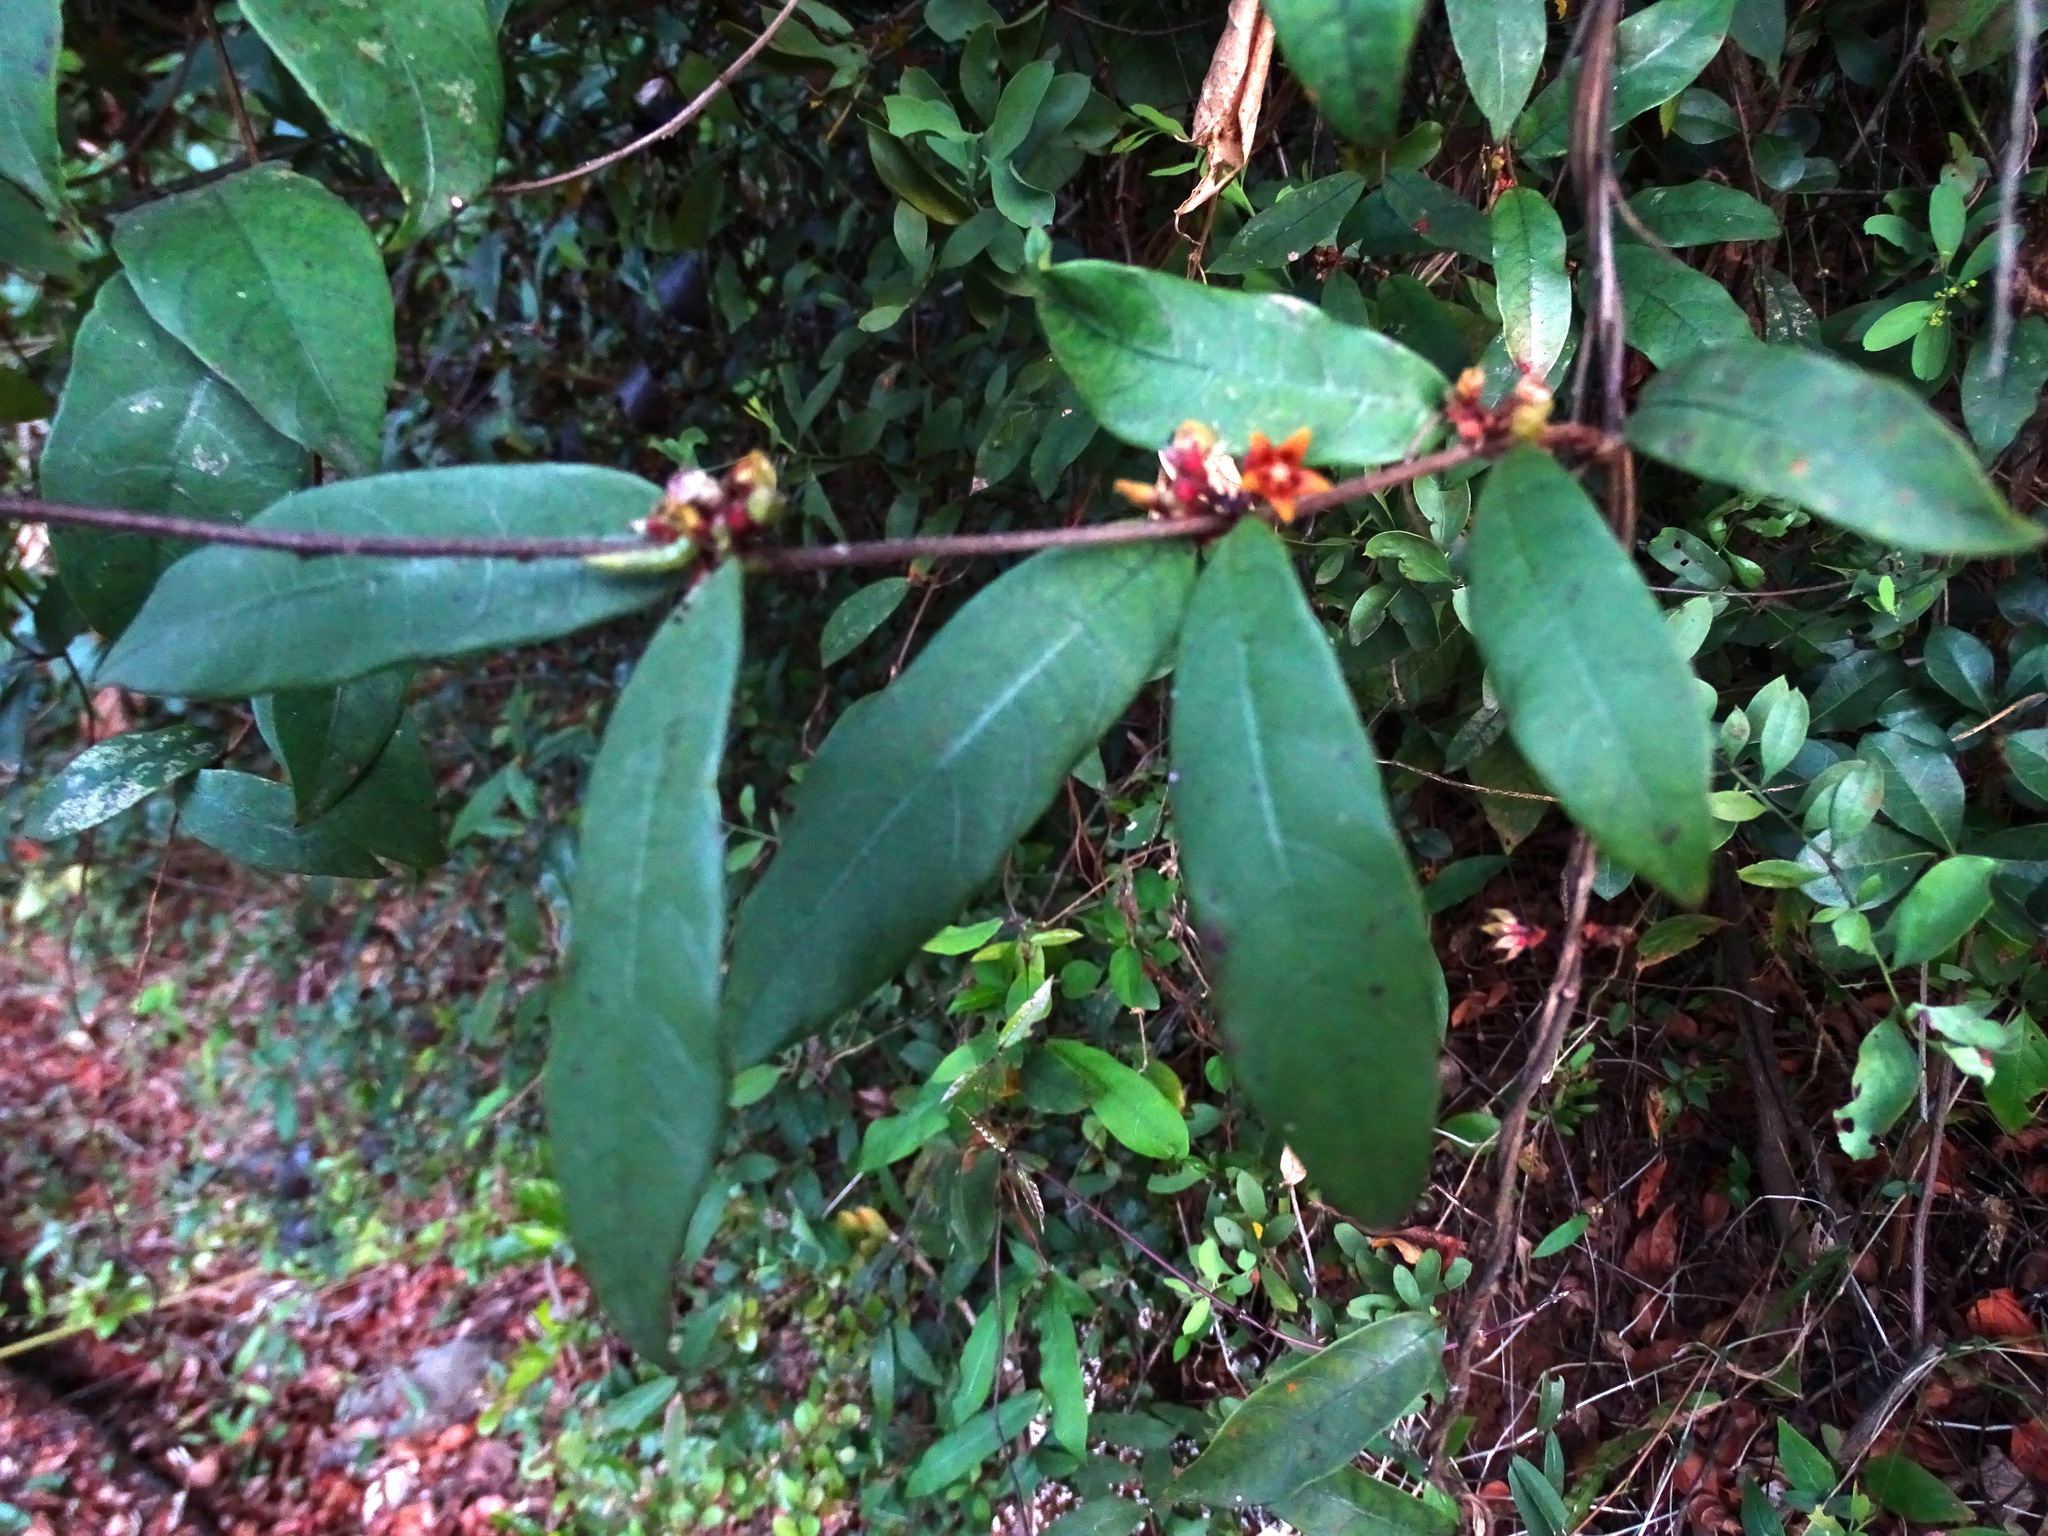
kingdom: Plantae
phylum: Tracheophyta
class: Magnoliopsida
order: Gentianales
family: Apocynaceae
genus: Hemidesmus
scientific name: Hemidesmus indicus
